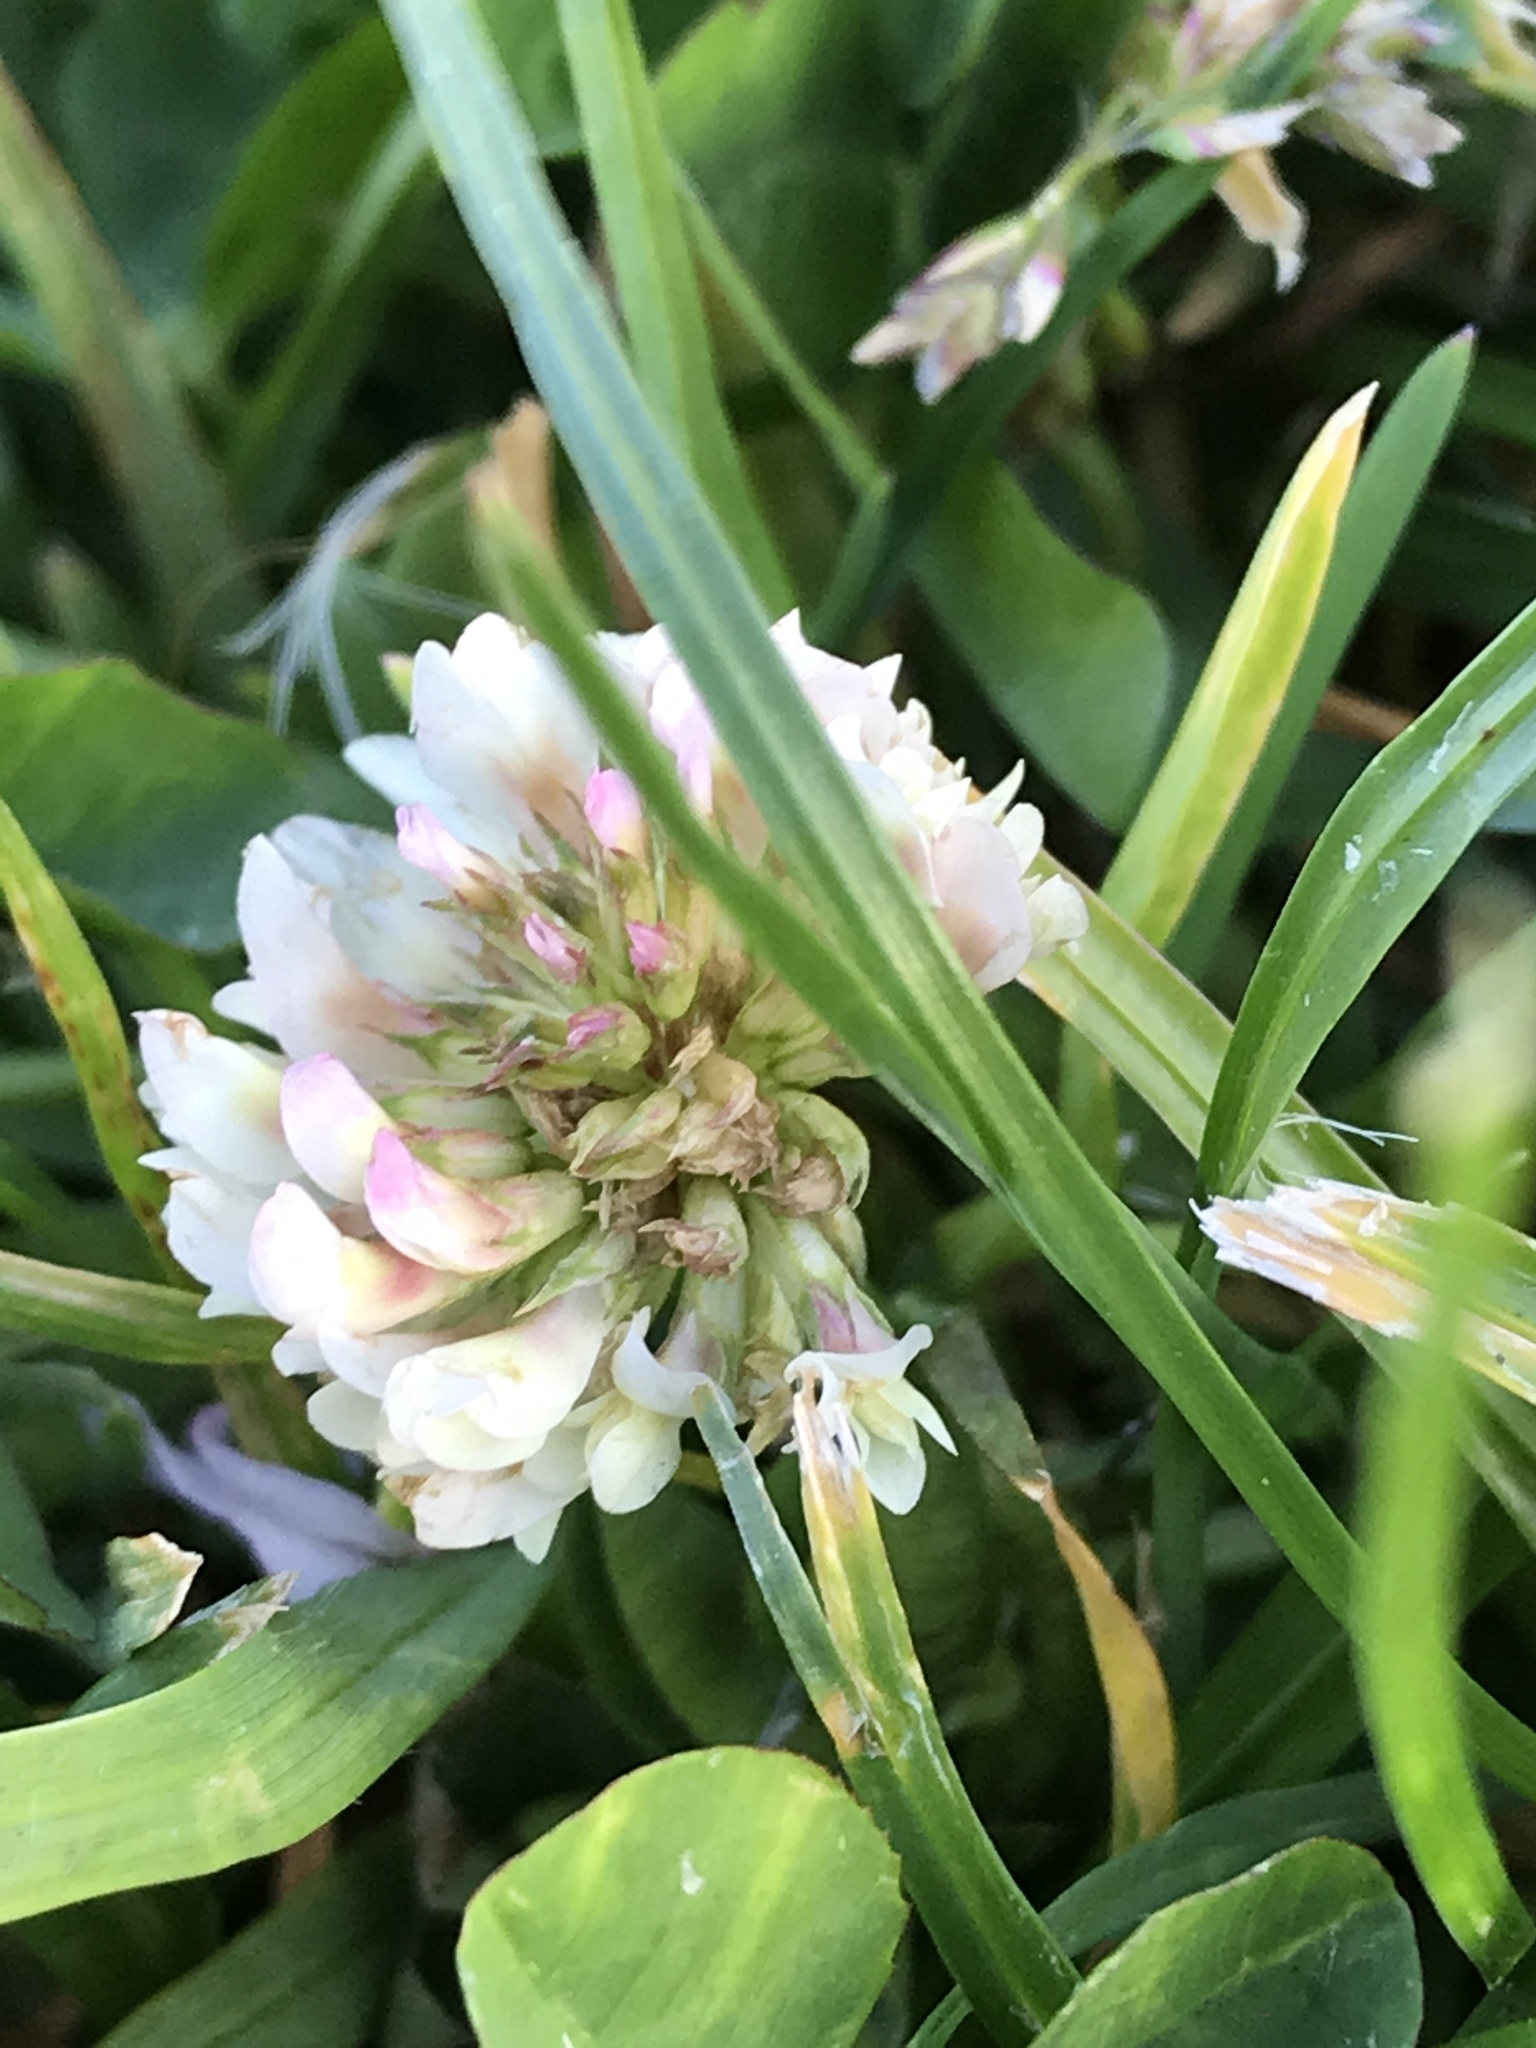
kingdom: Plantae
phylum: Tracheophyta
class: Magnoliopsida
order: Fabales
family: Fabaceae
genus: Trifolium
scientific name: Trifolium repens
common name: White clover
